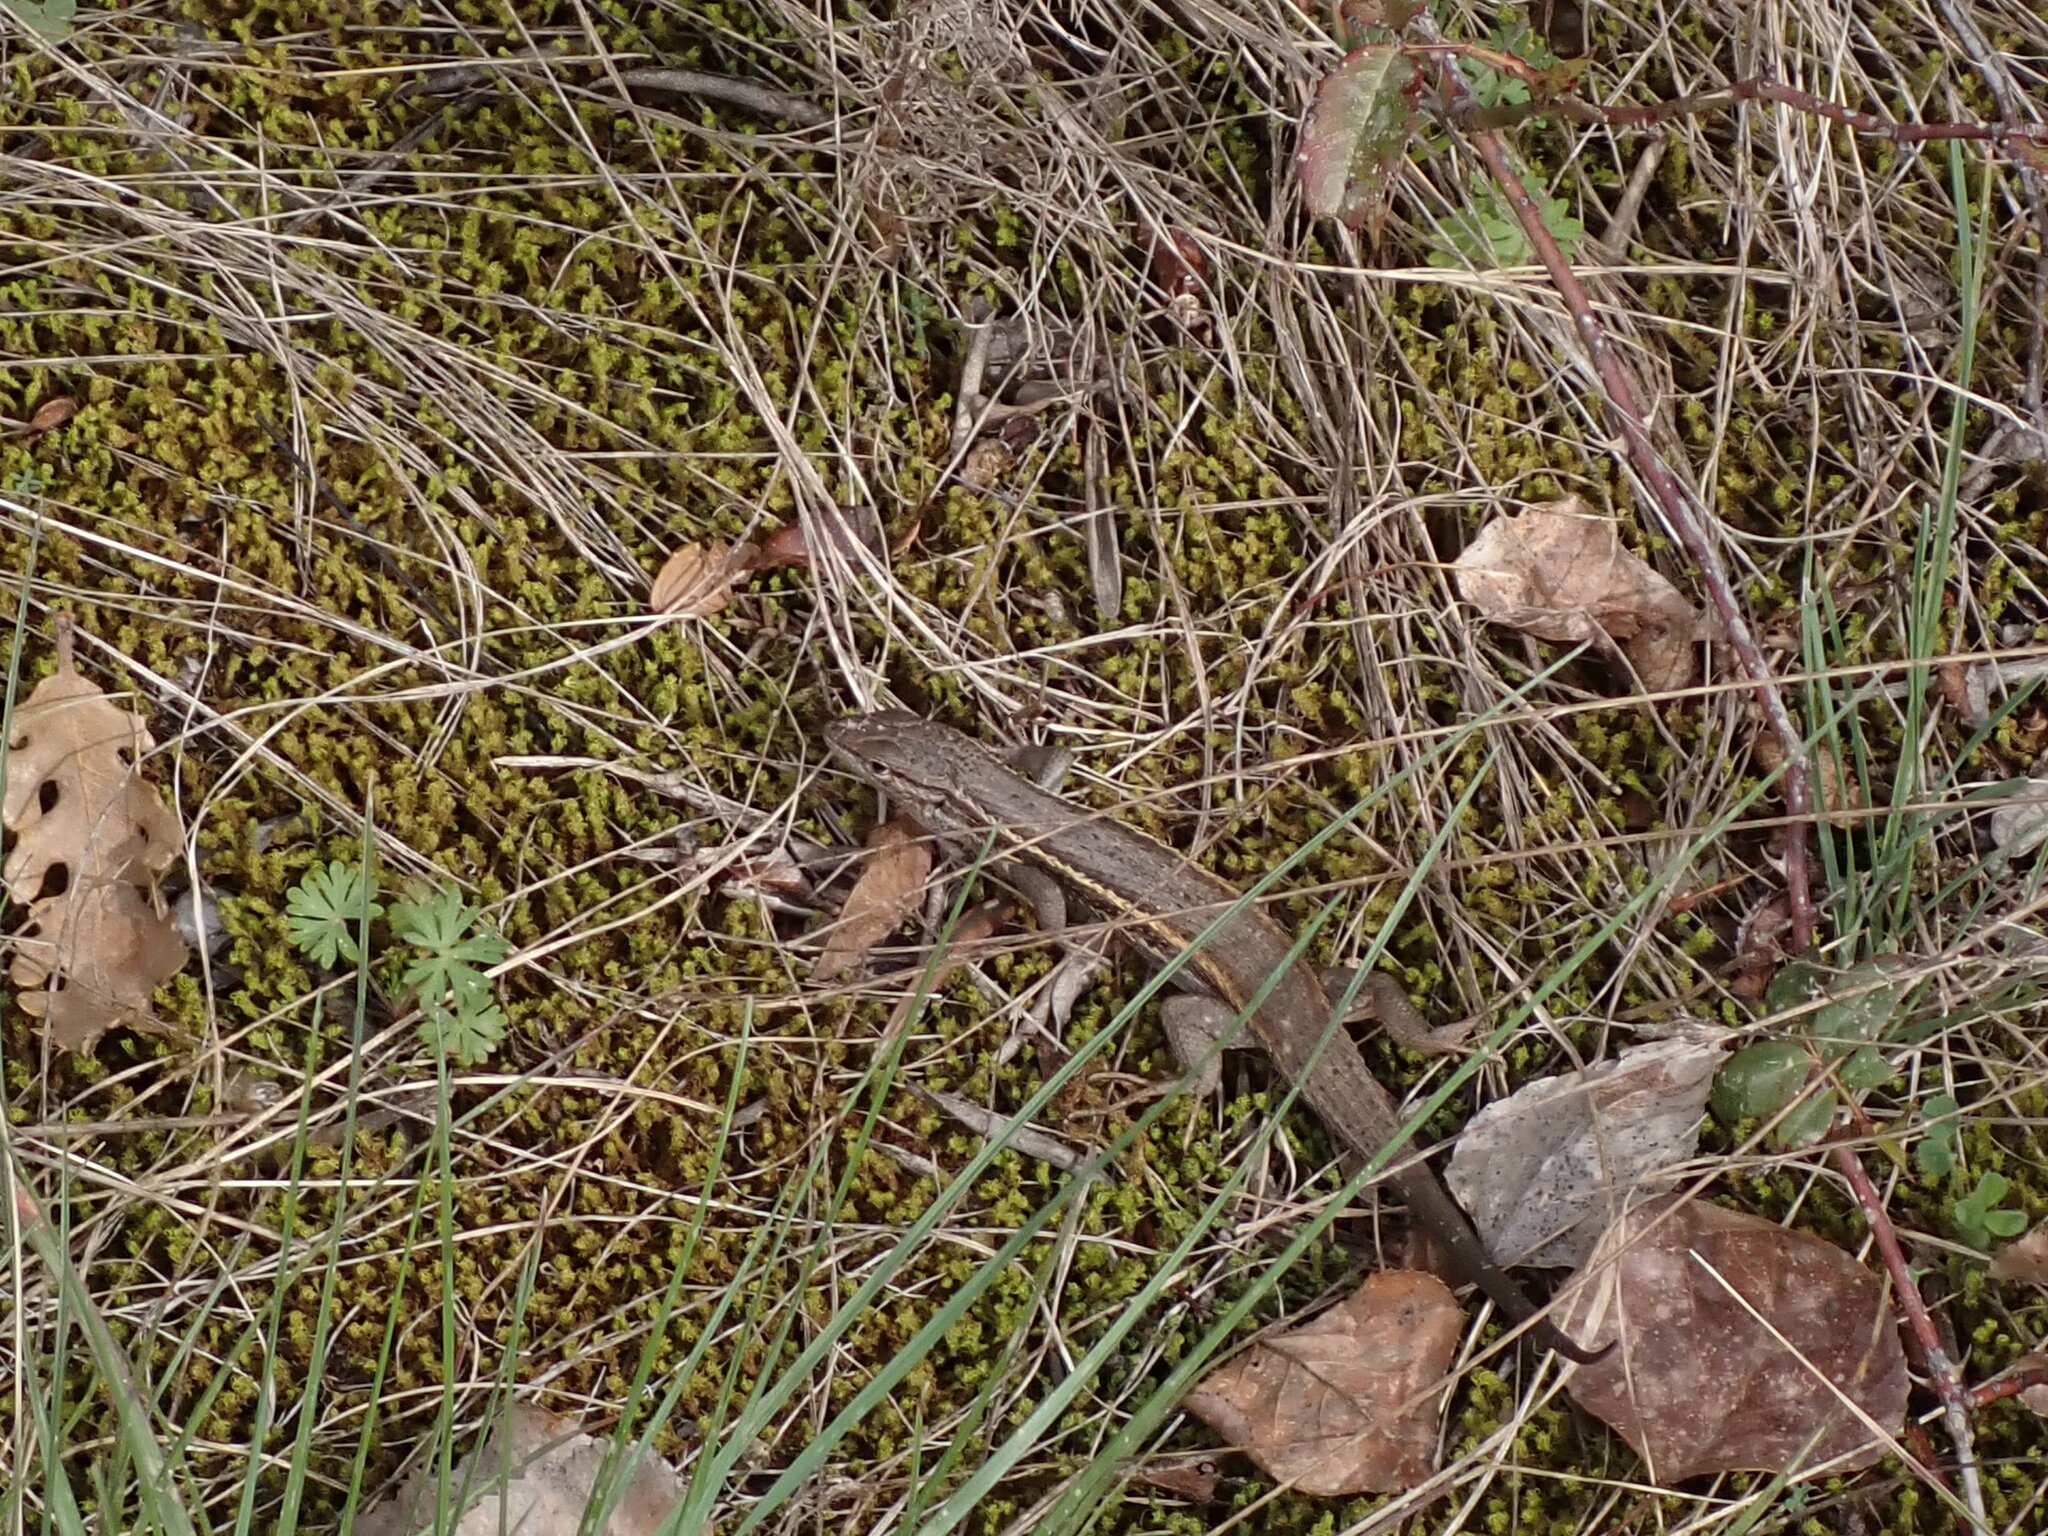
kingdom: Animalia
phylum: Chordata
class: Squamata
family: Lacertidae
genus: Psammodromus
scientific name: Psammodromus algirus
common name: Algerian psammodromus
